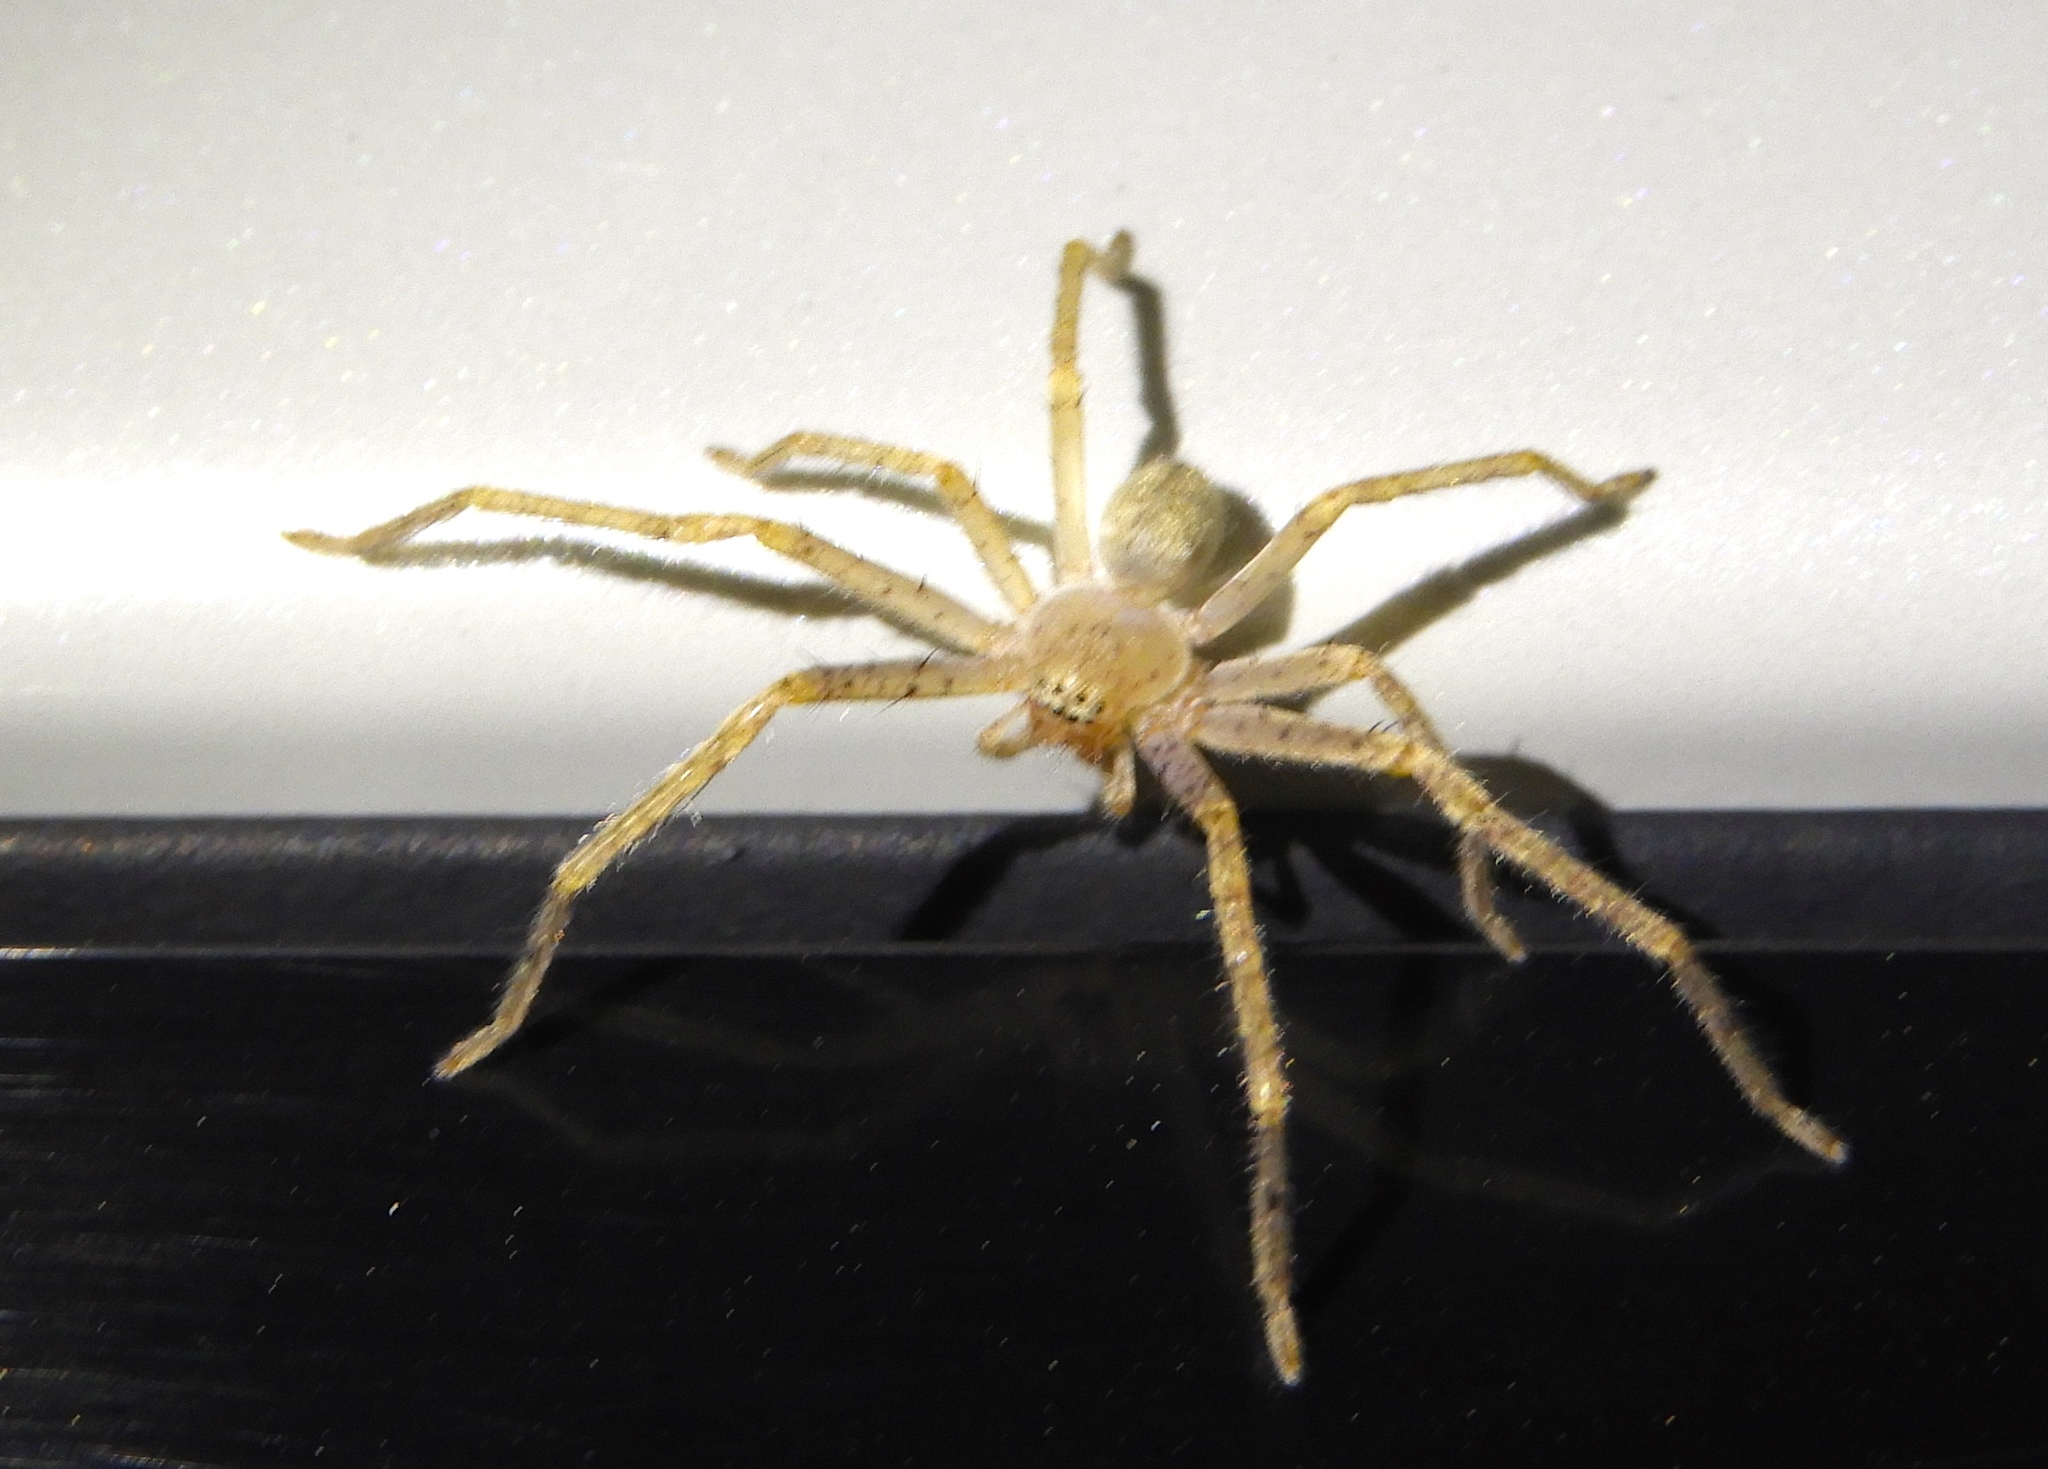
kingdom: Animalia
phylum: Arthropoda
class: Arachnida
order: Araneae
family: Sparassidae
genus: Curicaberis
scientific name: Curicaberis
